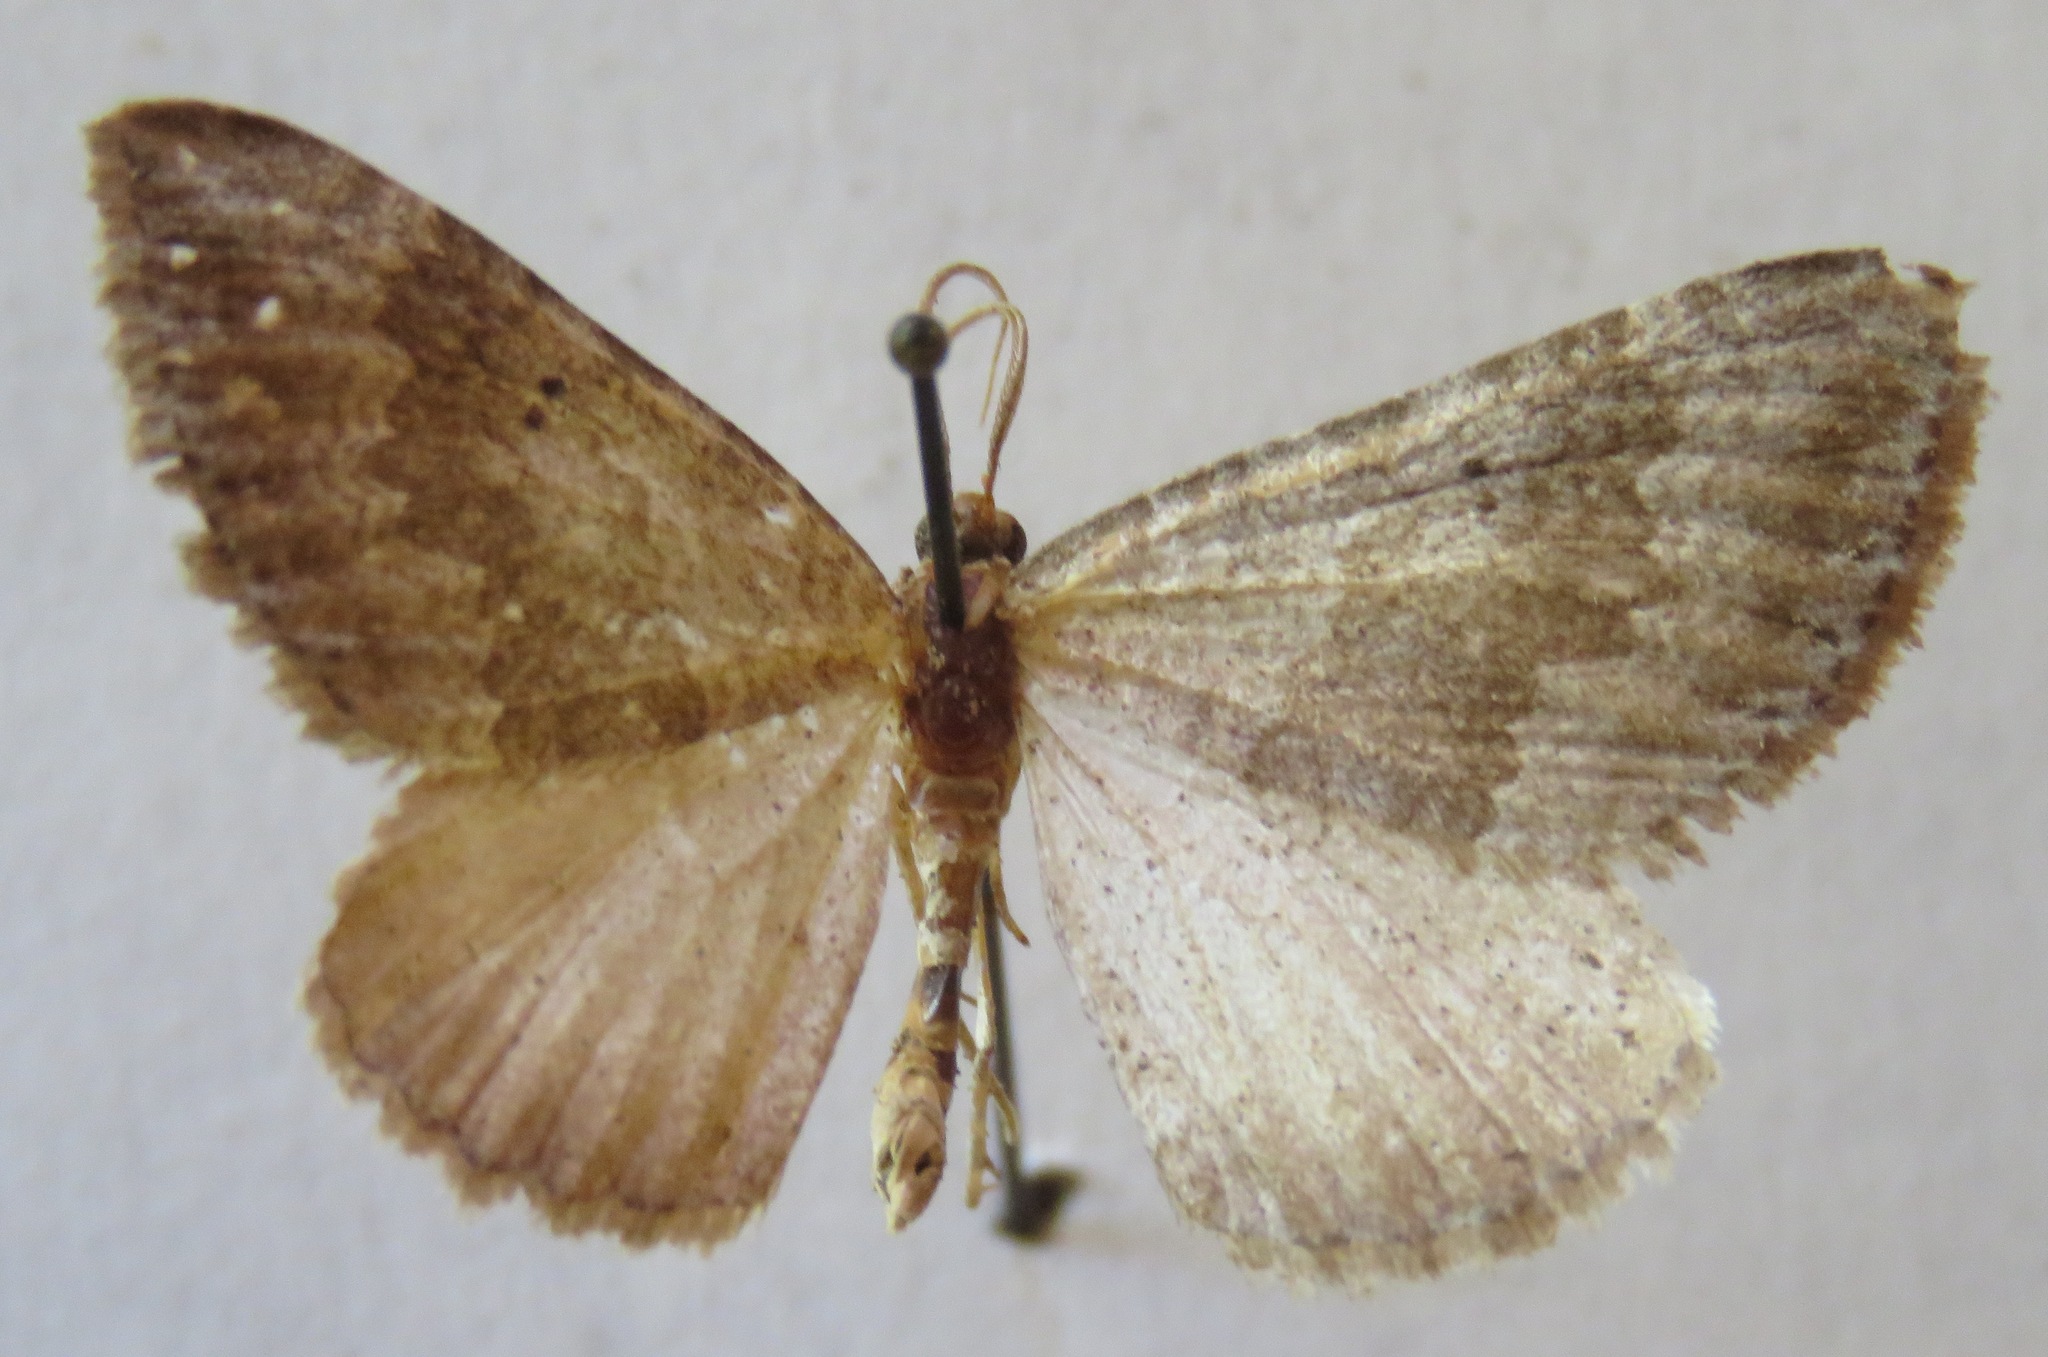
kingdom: Animalia
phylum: Arthropoda
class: Insecta
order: Lepidoptera
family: Geometridae
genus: Scotopteryx
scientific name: Scotopteryx bipunctaria
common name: Chalk carpet
